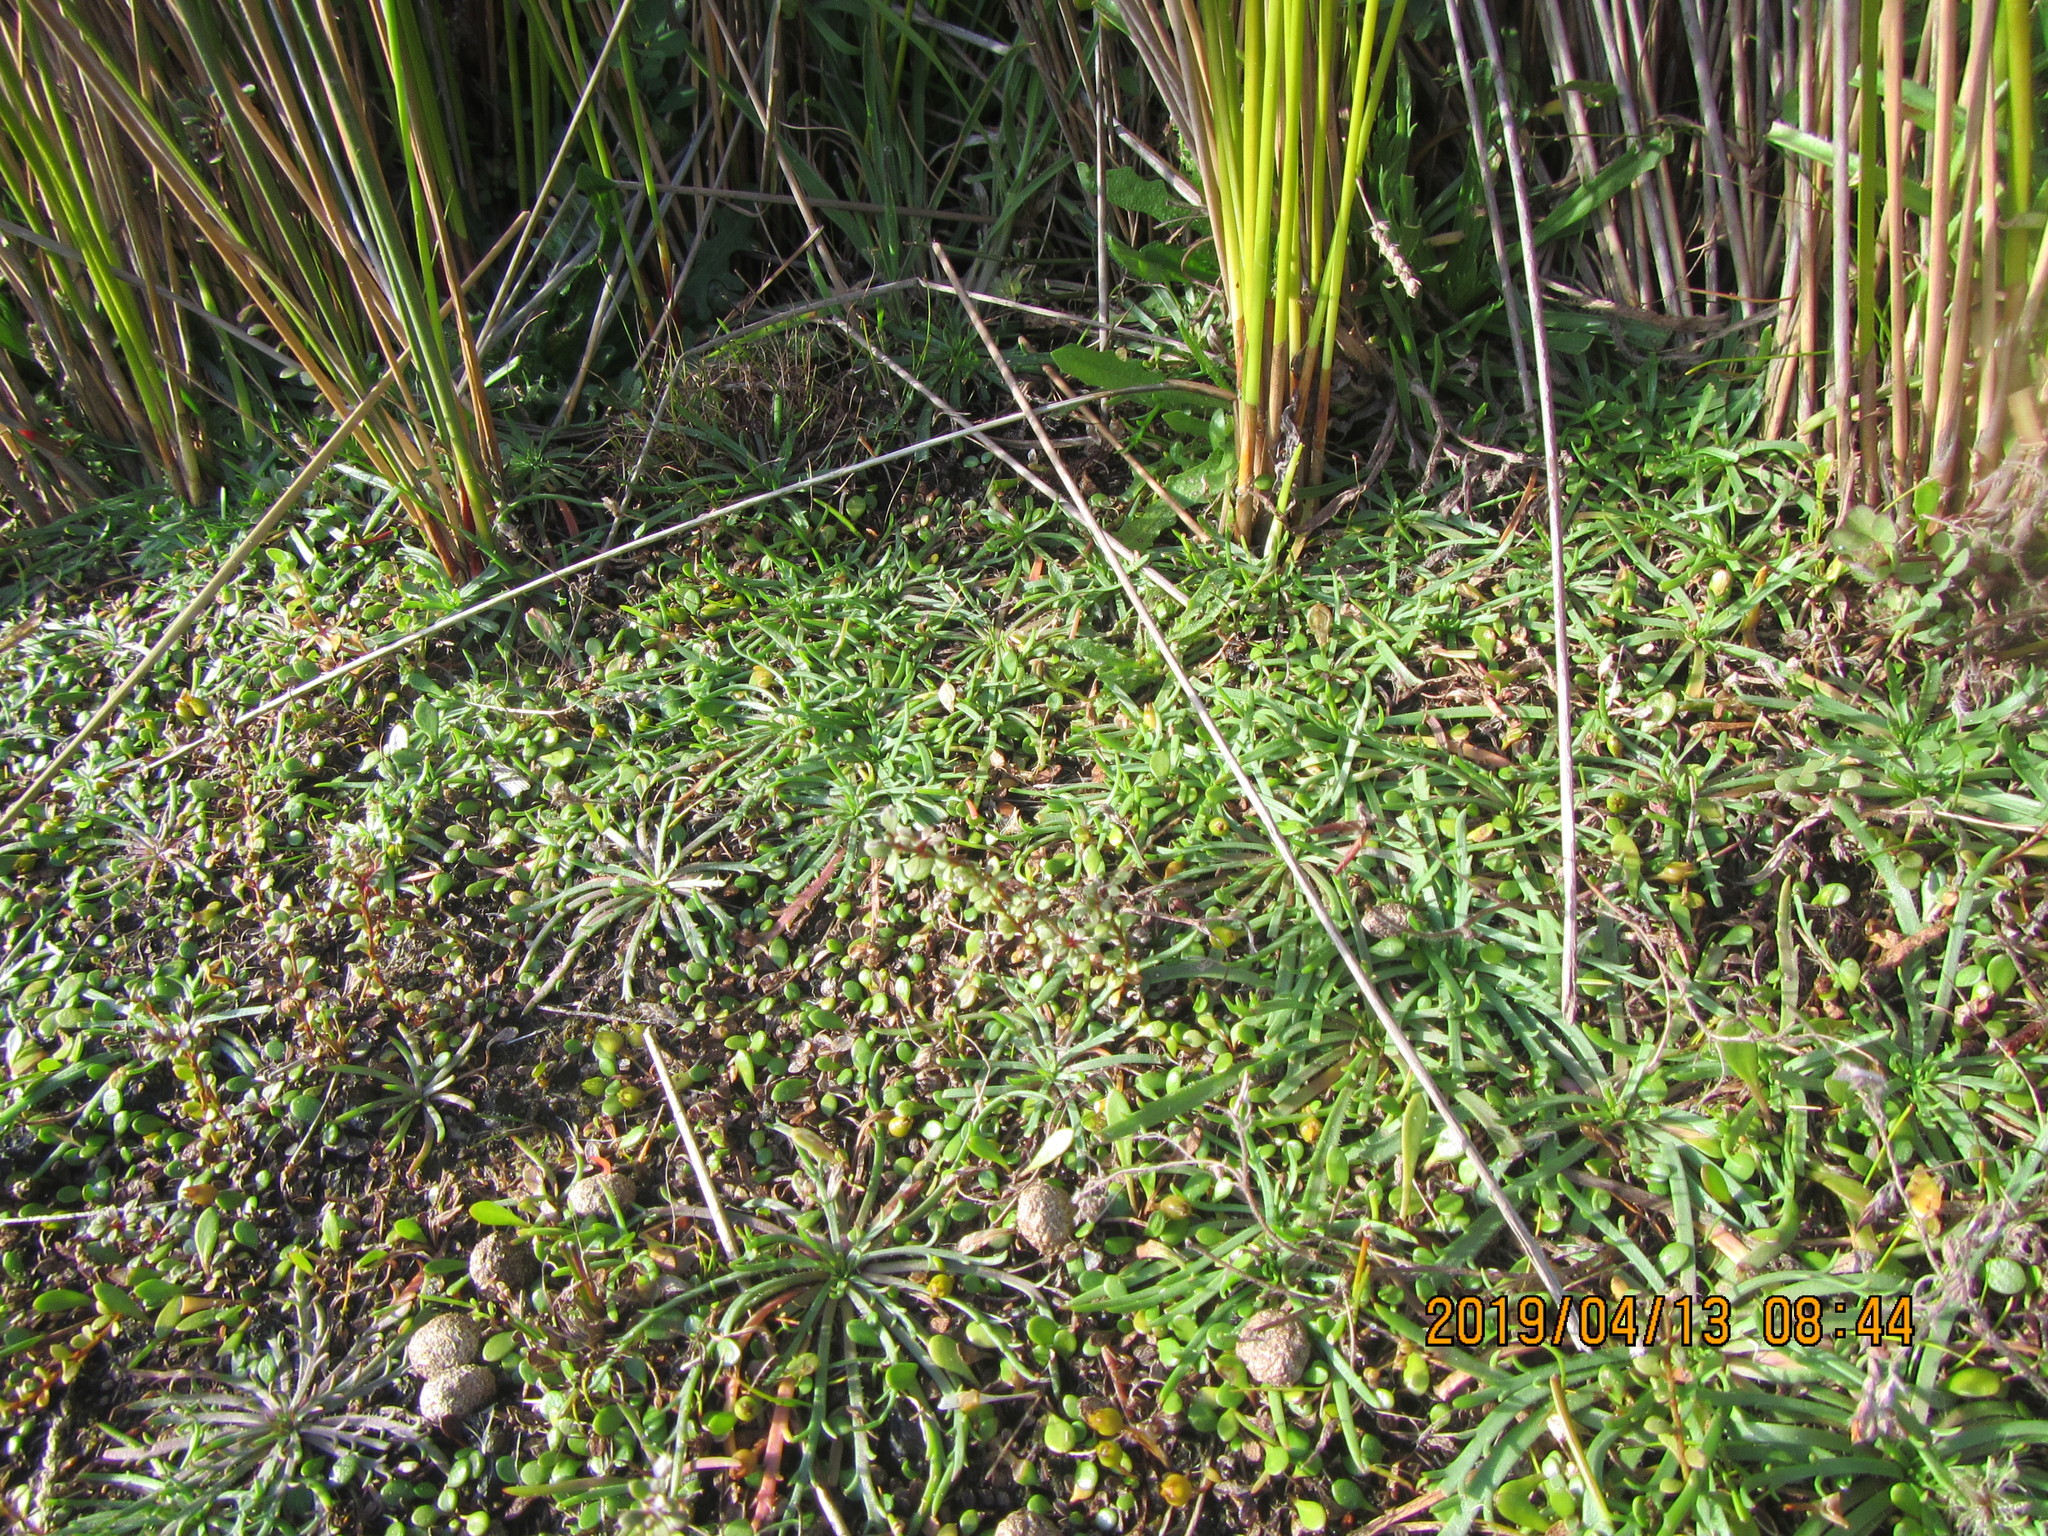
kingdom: Plantae
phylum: Tracheophyta
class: Magnoliopsida
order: Lamiales
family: Plantaginaceae
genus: Plantago
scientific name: Plantago coronopus
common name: Buck's-horn plantain
